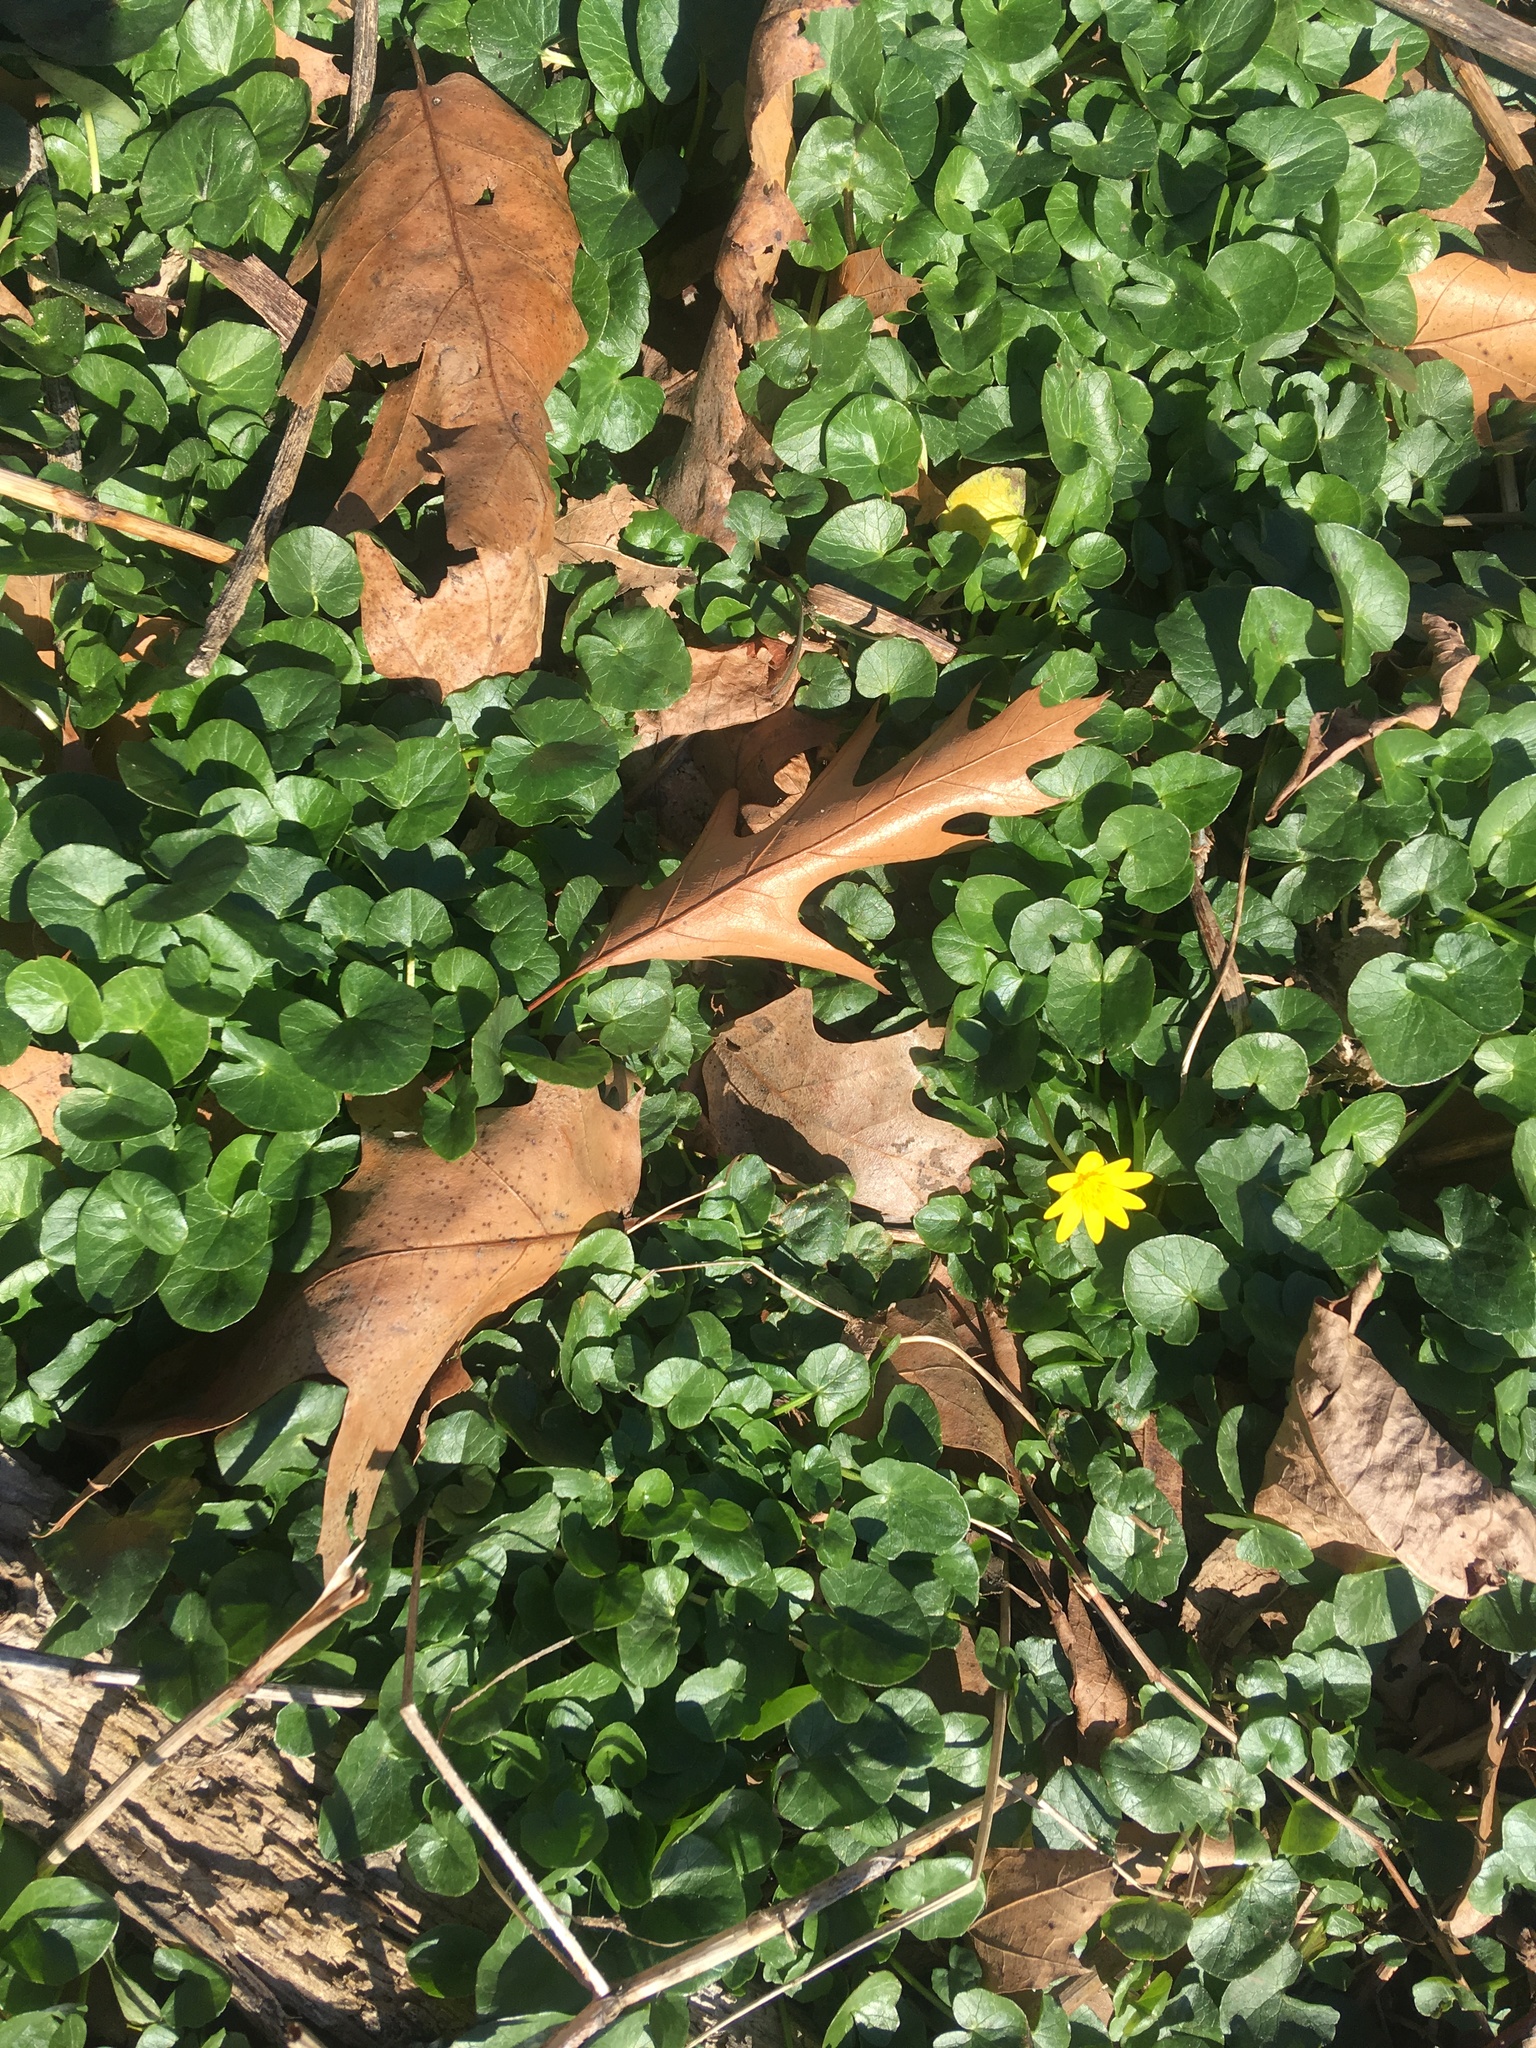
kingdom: Plantae
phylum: Tracheophyta
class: Magnoliopsida
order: Ranunculales
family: Ranunculaceae
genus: Ficaria
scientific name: Ficaria verna
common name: Lesser celandine
